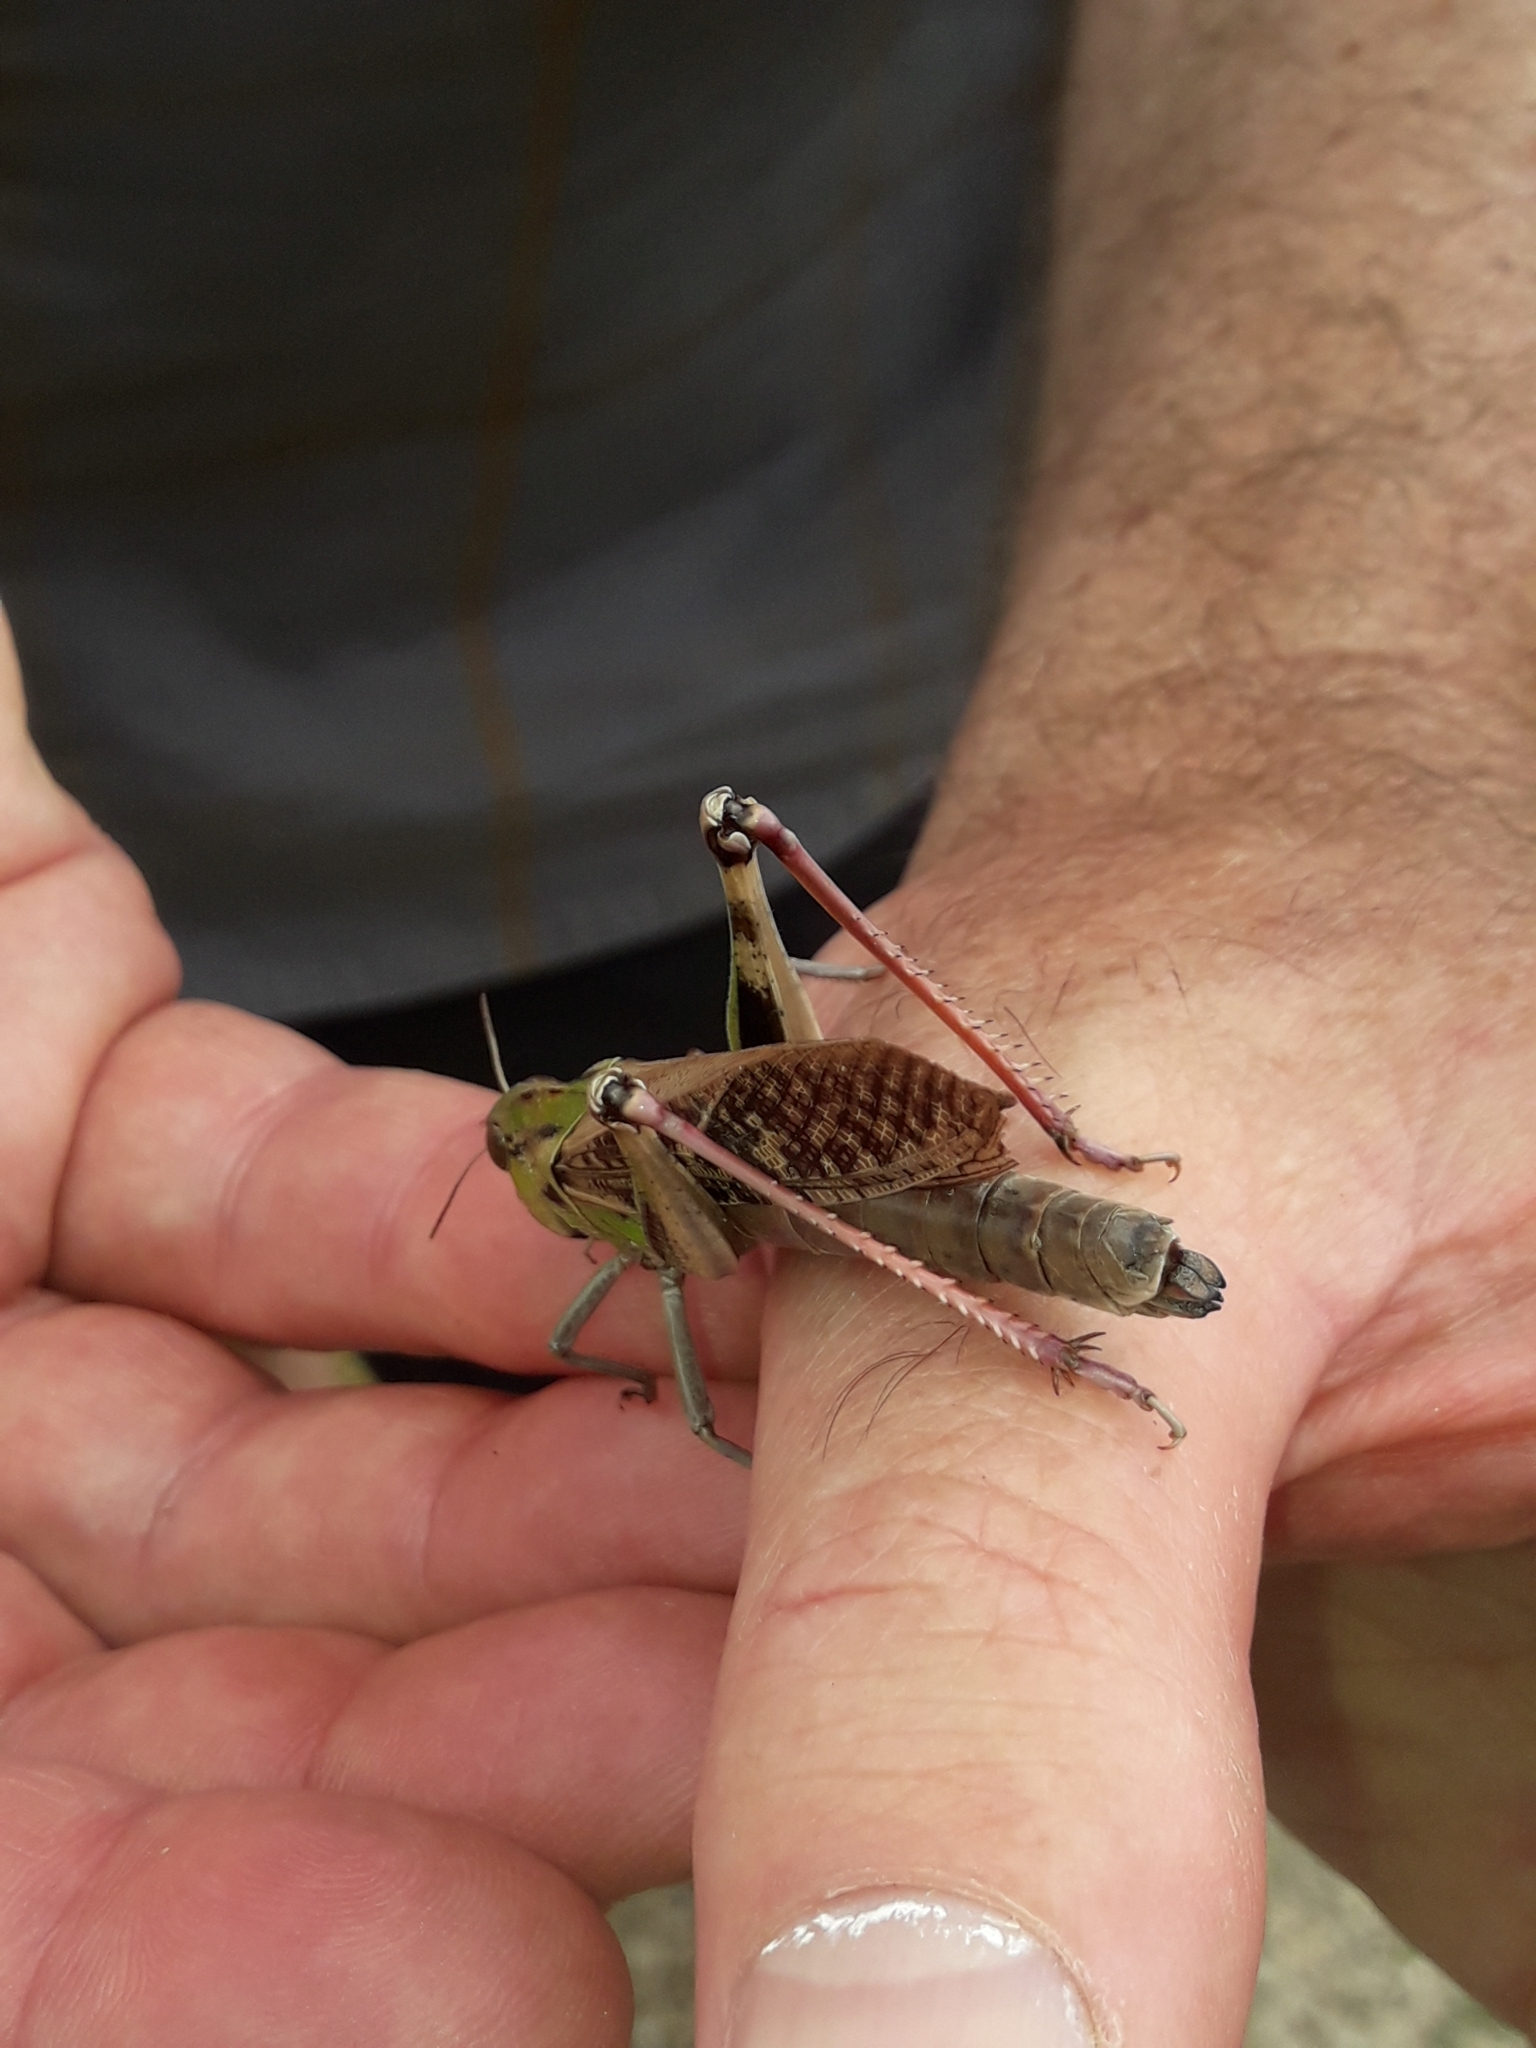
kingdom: Animalia
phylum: Arthropoda
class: Insecta
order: Orthoptera
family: Acrididae
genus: Locusta
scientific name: Locusta migratoria
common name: Migratory locust
